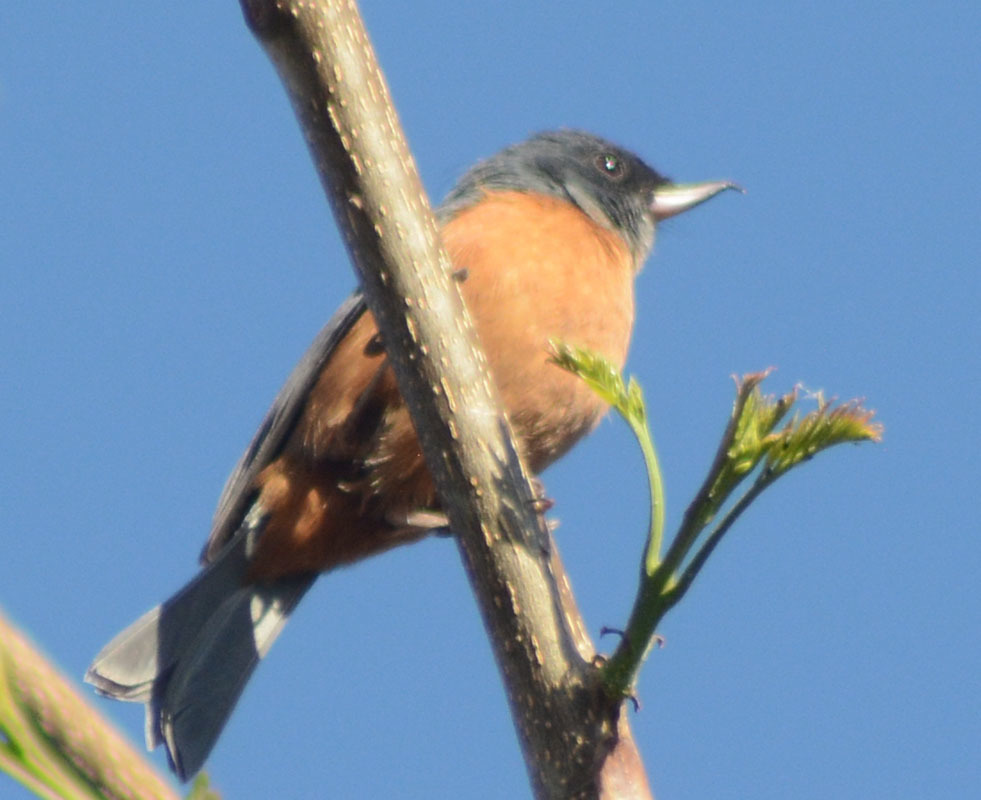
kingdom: Animalia
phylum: Chordata
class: Aves
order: Passeriformes
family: Thraupidae
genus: Diglossa
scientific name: Diglossa baritula
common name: Cinnamon-bellied flowerpiercer
